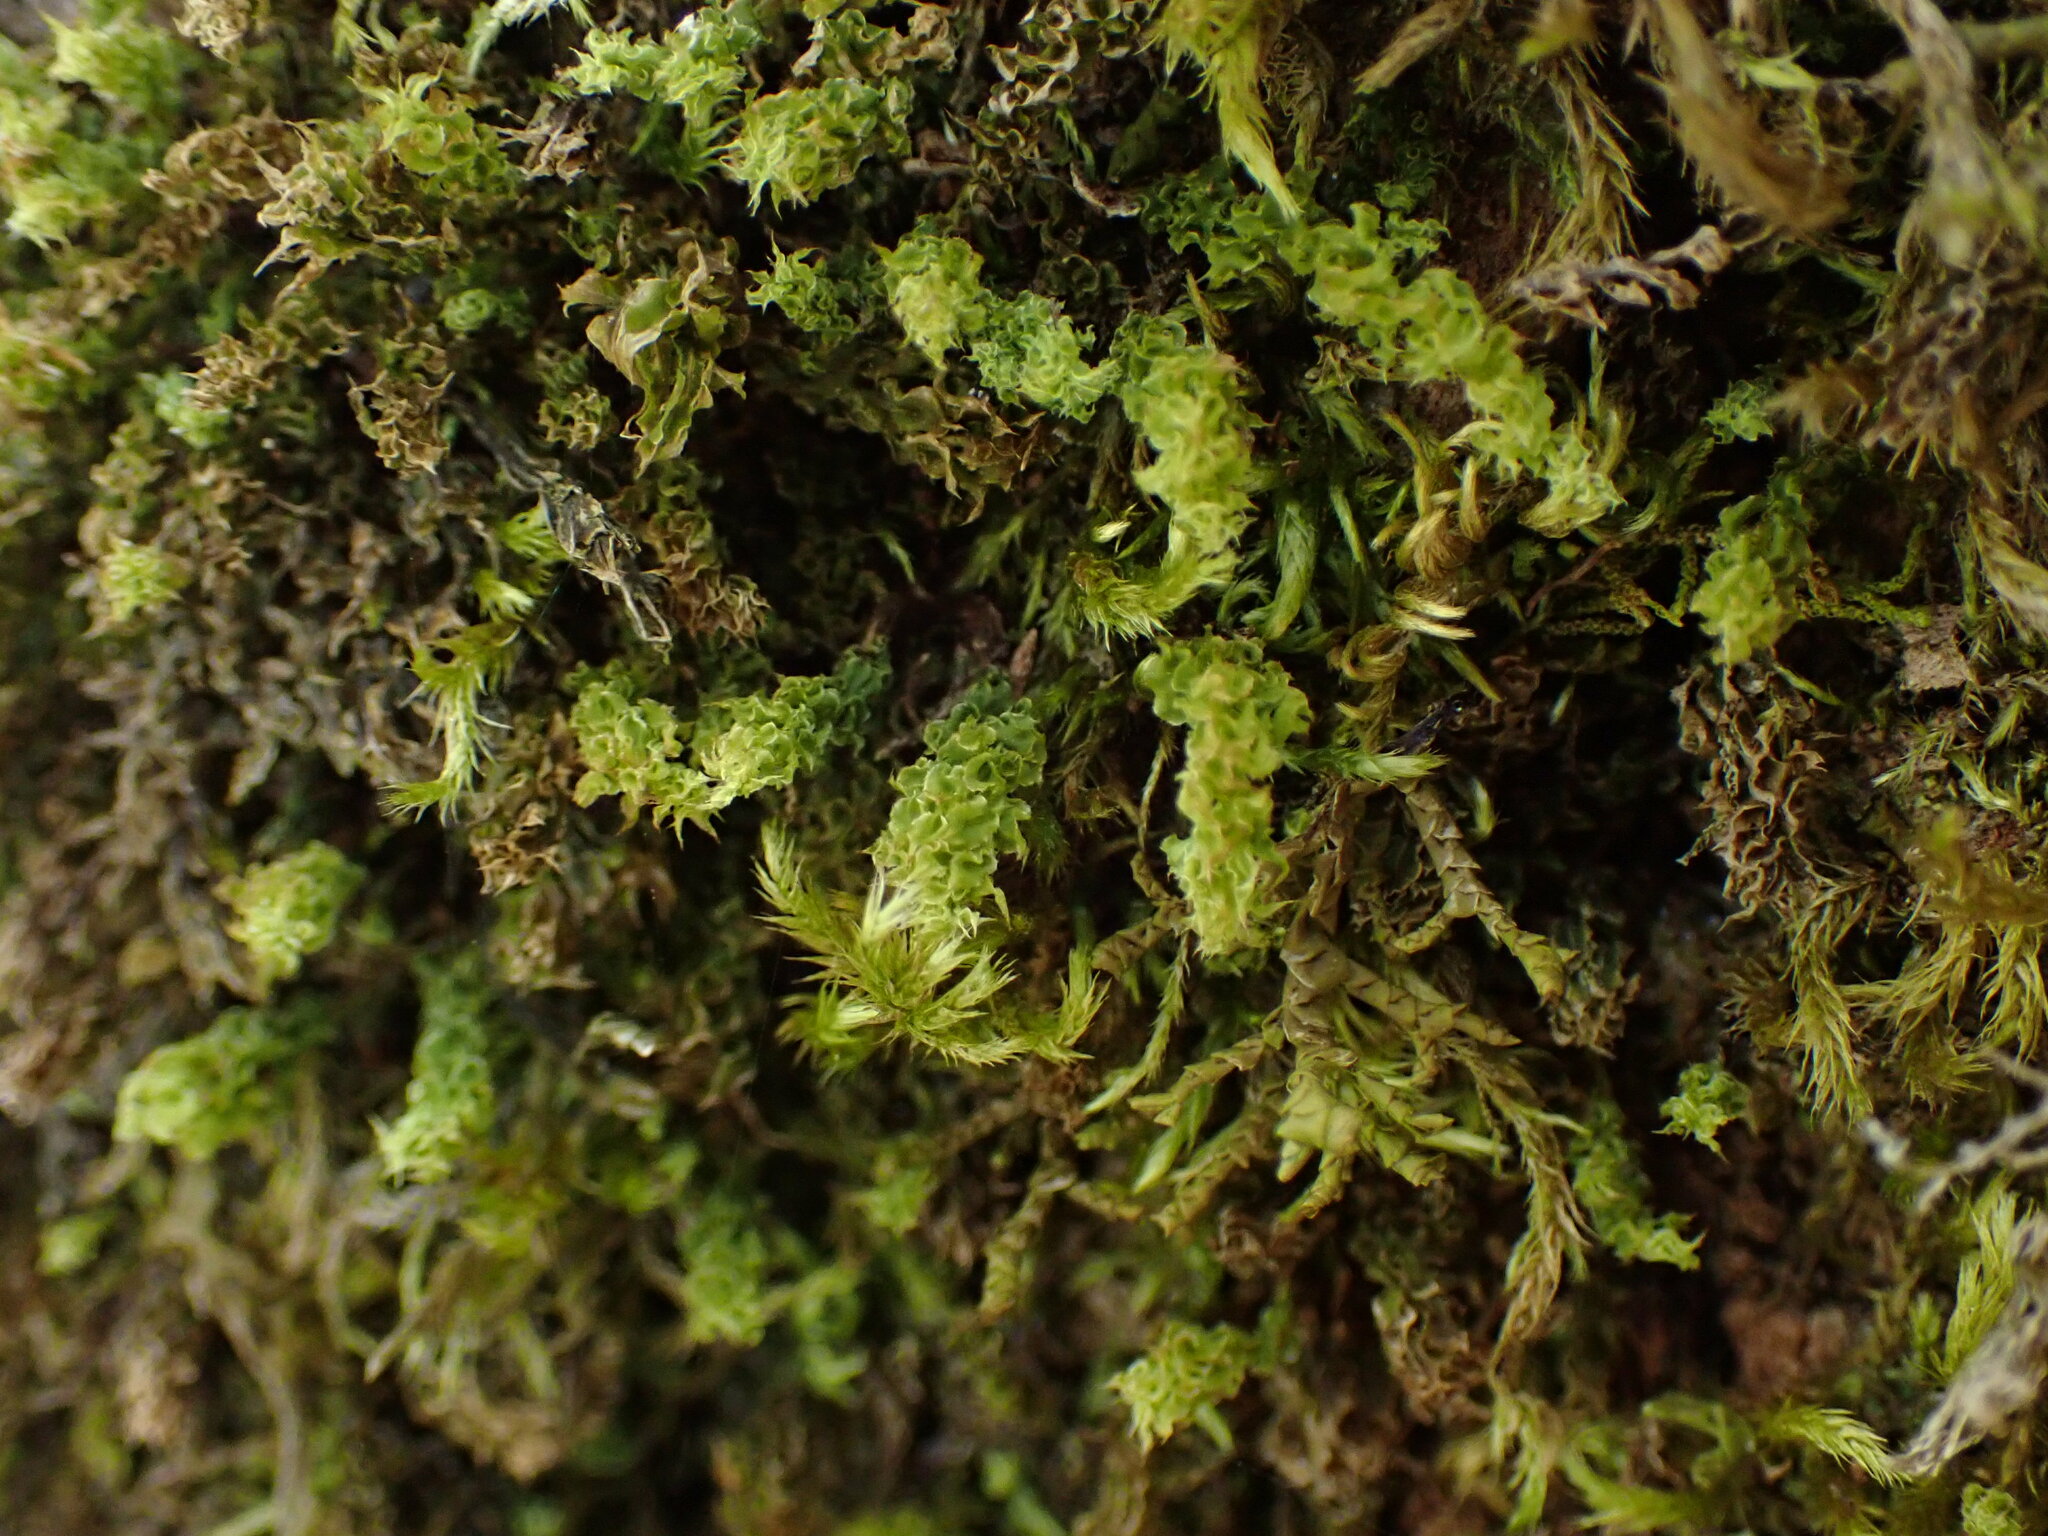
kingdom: Plantae
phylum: Bryophyta
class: Bryopsida
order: Bryales
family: Mniaceae
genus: Plagiomnium
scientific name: Plagiomnium venustum
